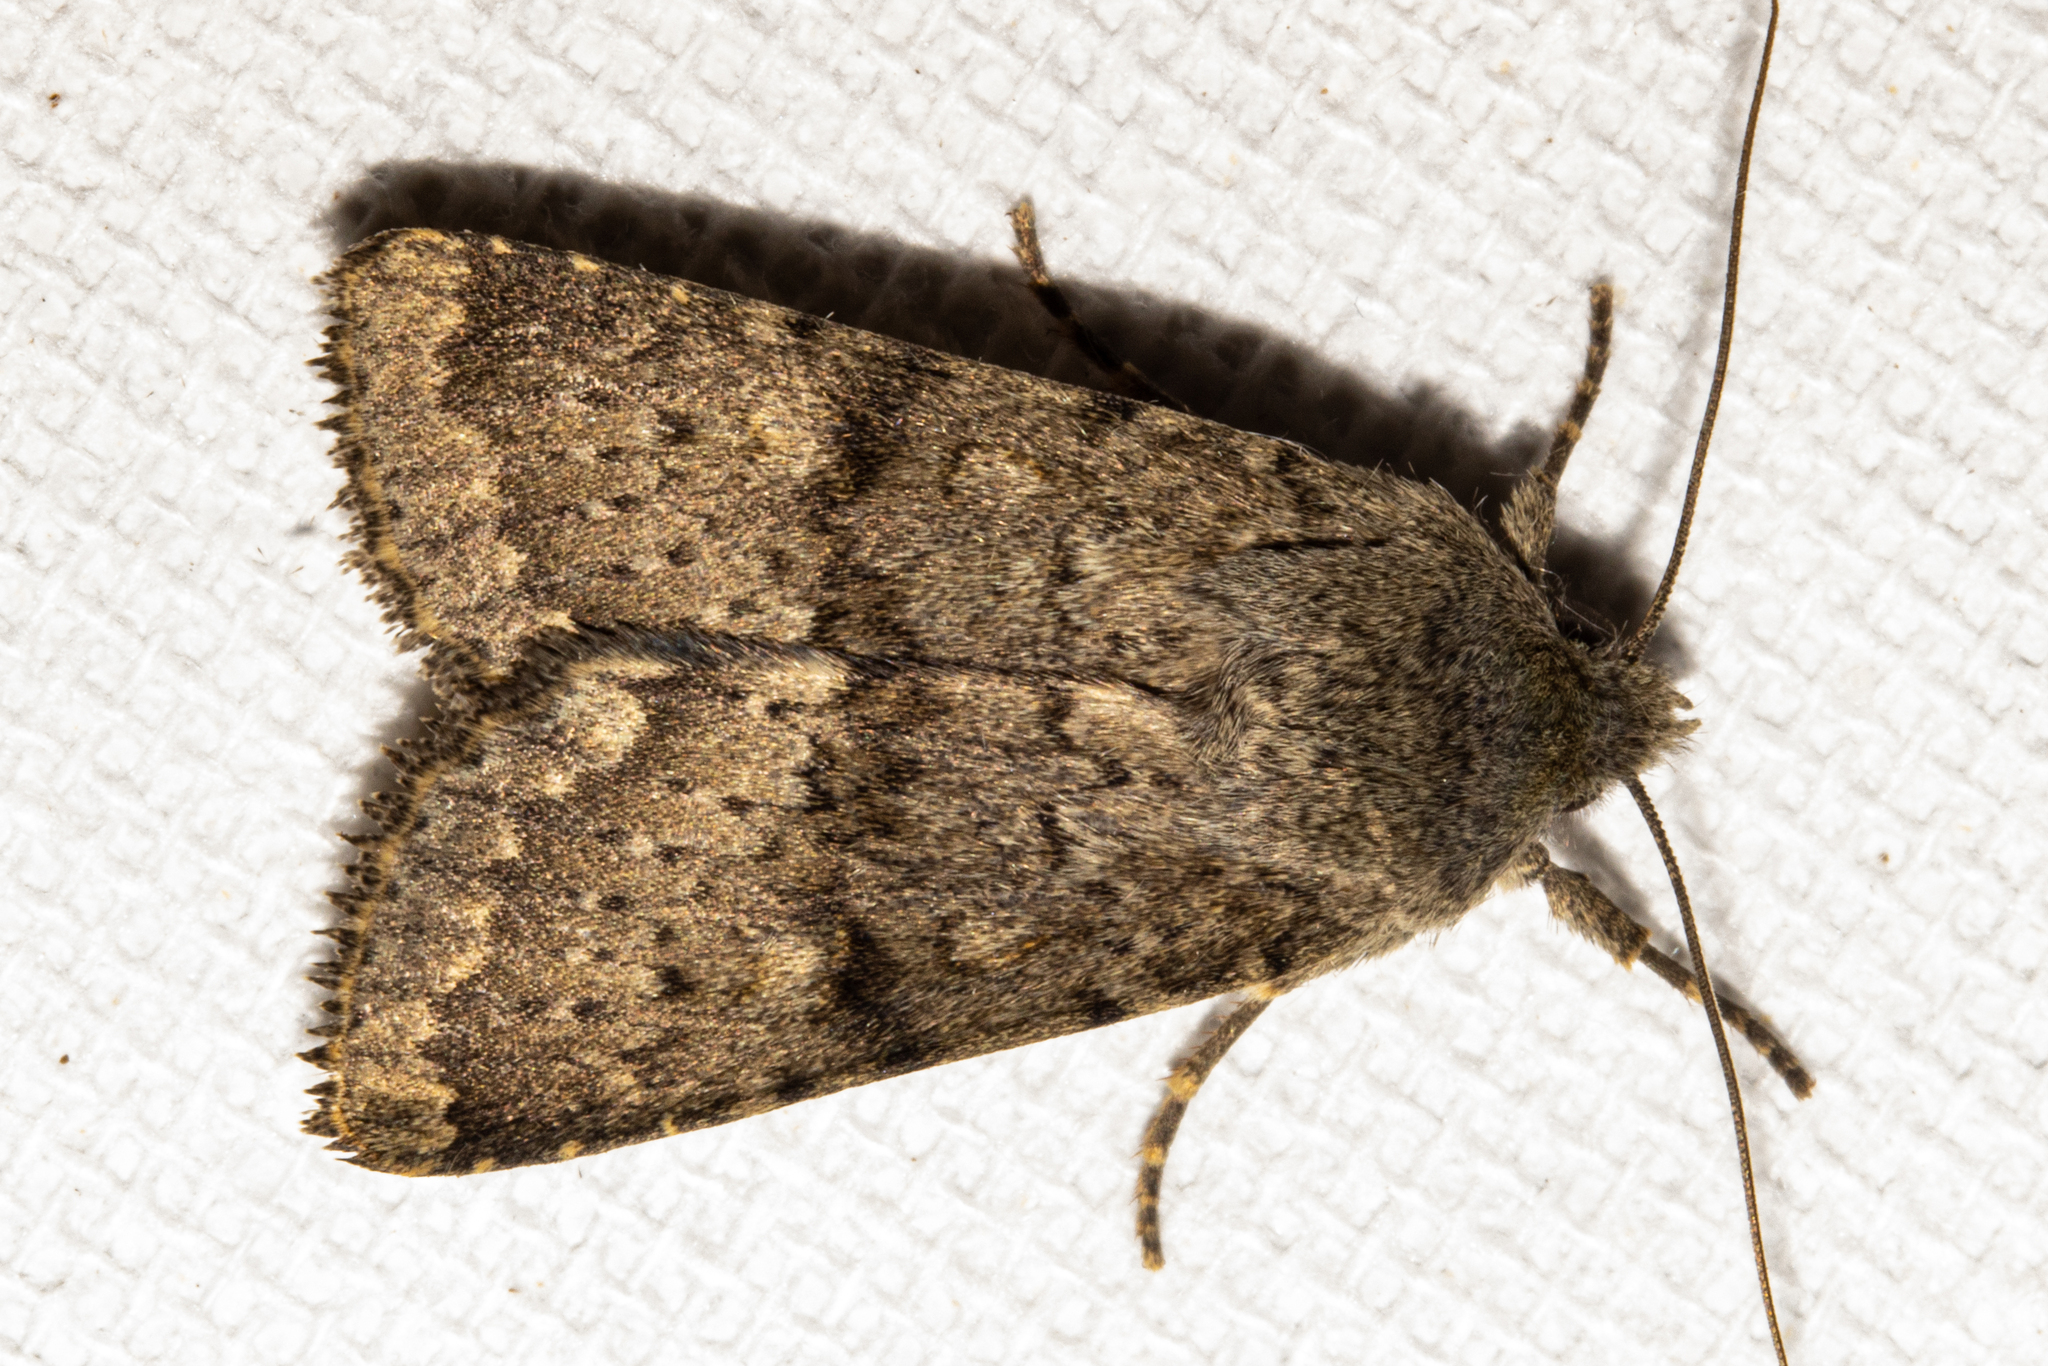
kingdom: Animalia
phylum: Arthropoda
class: Insecta
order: Lepidoptera
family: Noctuidae
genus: Ichneutica
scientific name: Ichneutica moderata
